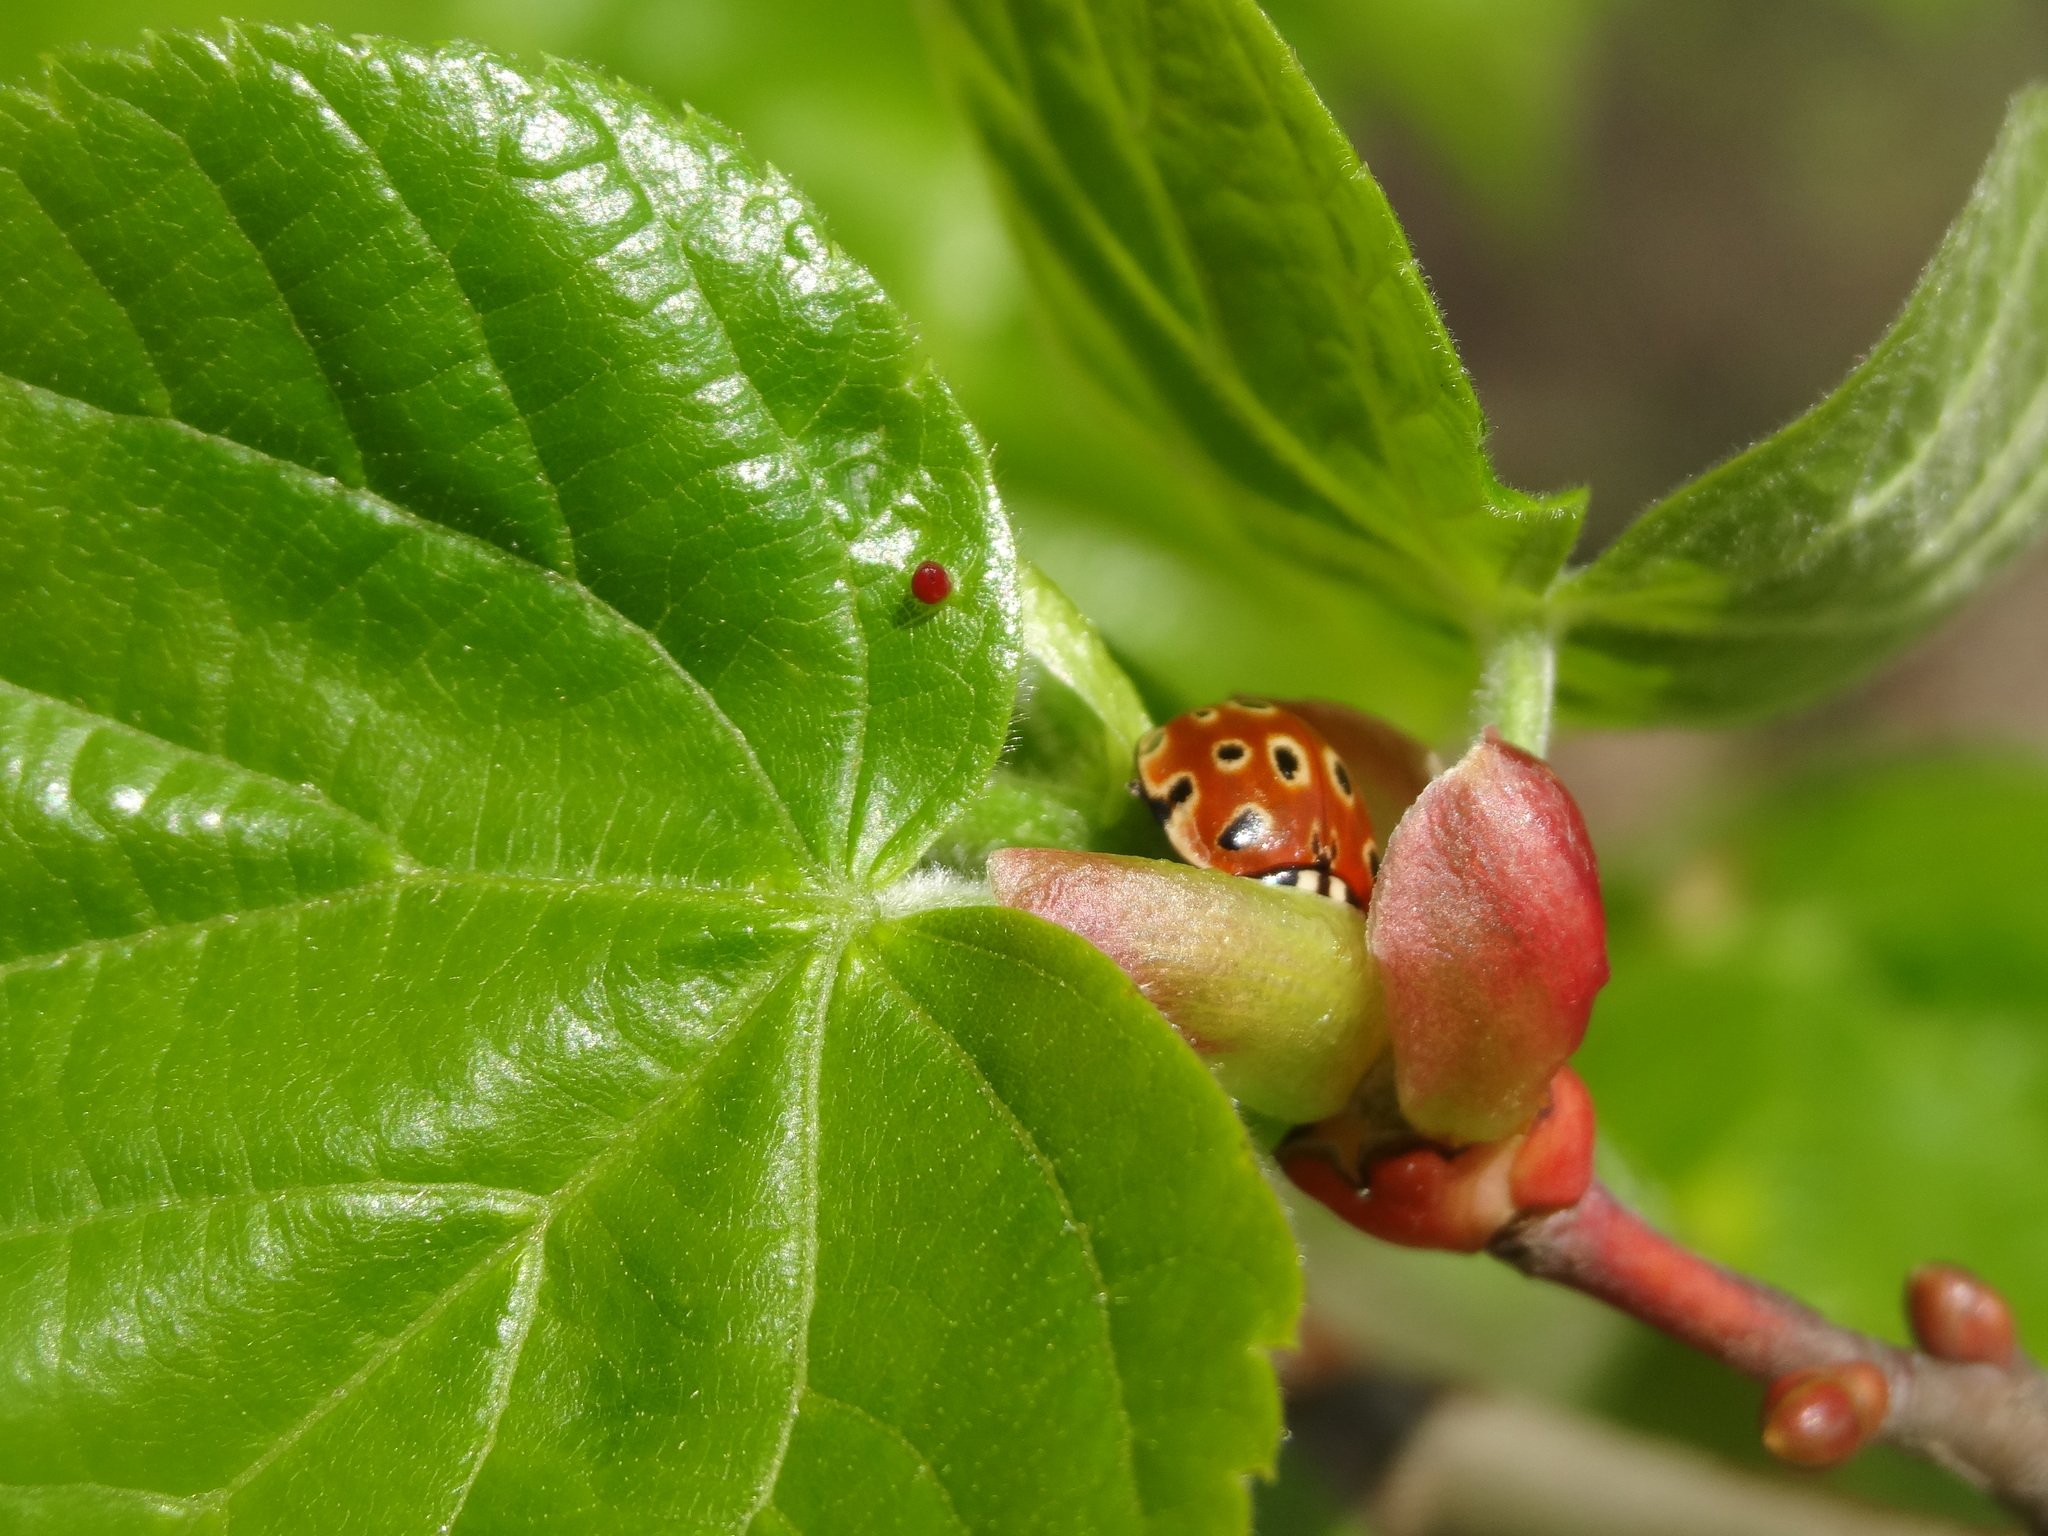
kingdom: Animalia
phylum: Arthropoda
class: Insecta
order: Coleoptera
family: Coccinellidae
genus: Anatis
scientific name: Anatis ocellata
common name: Eyed ladybird
